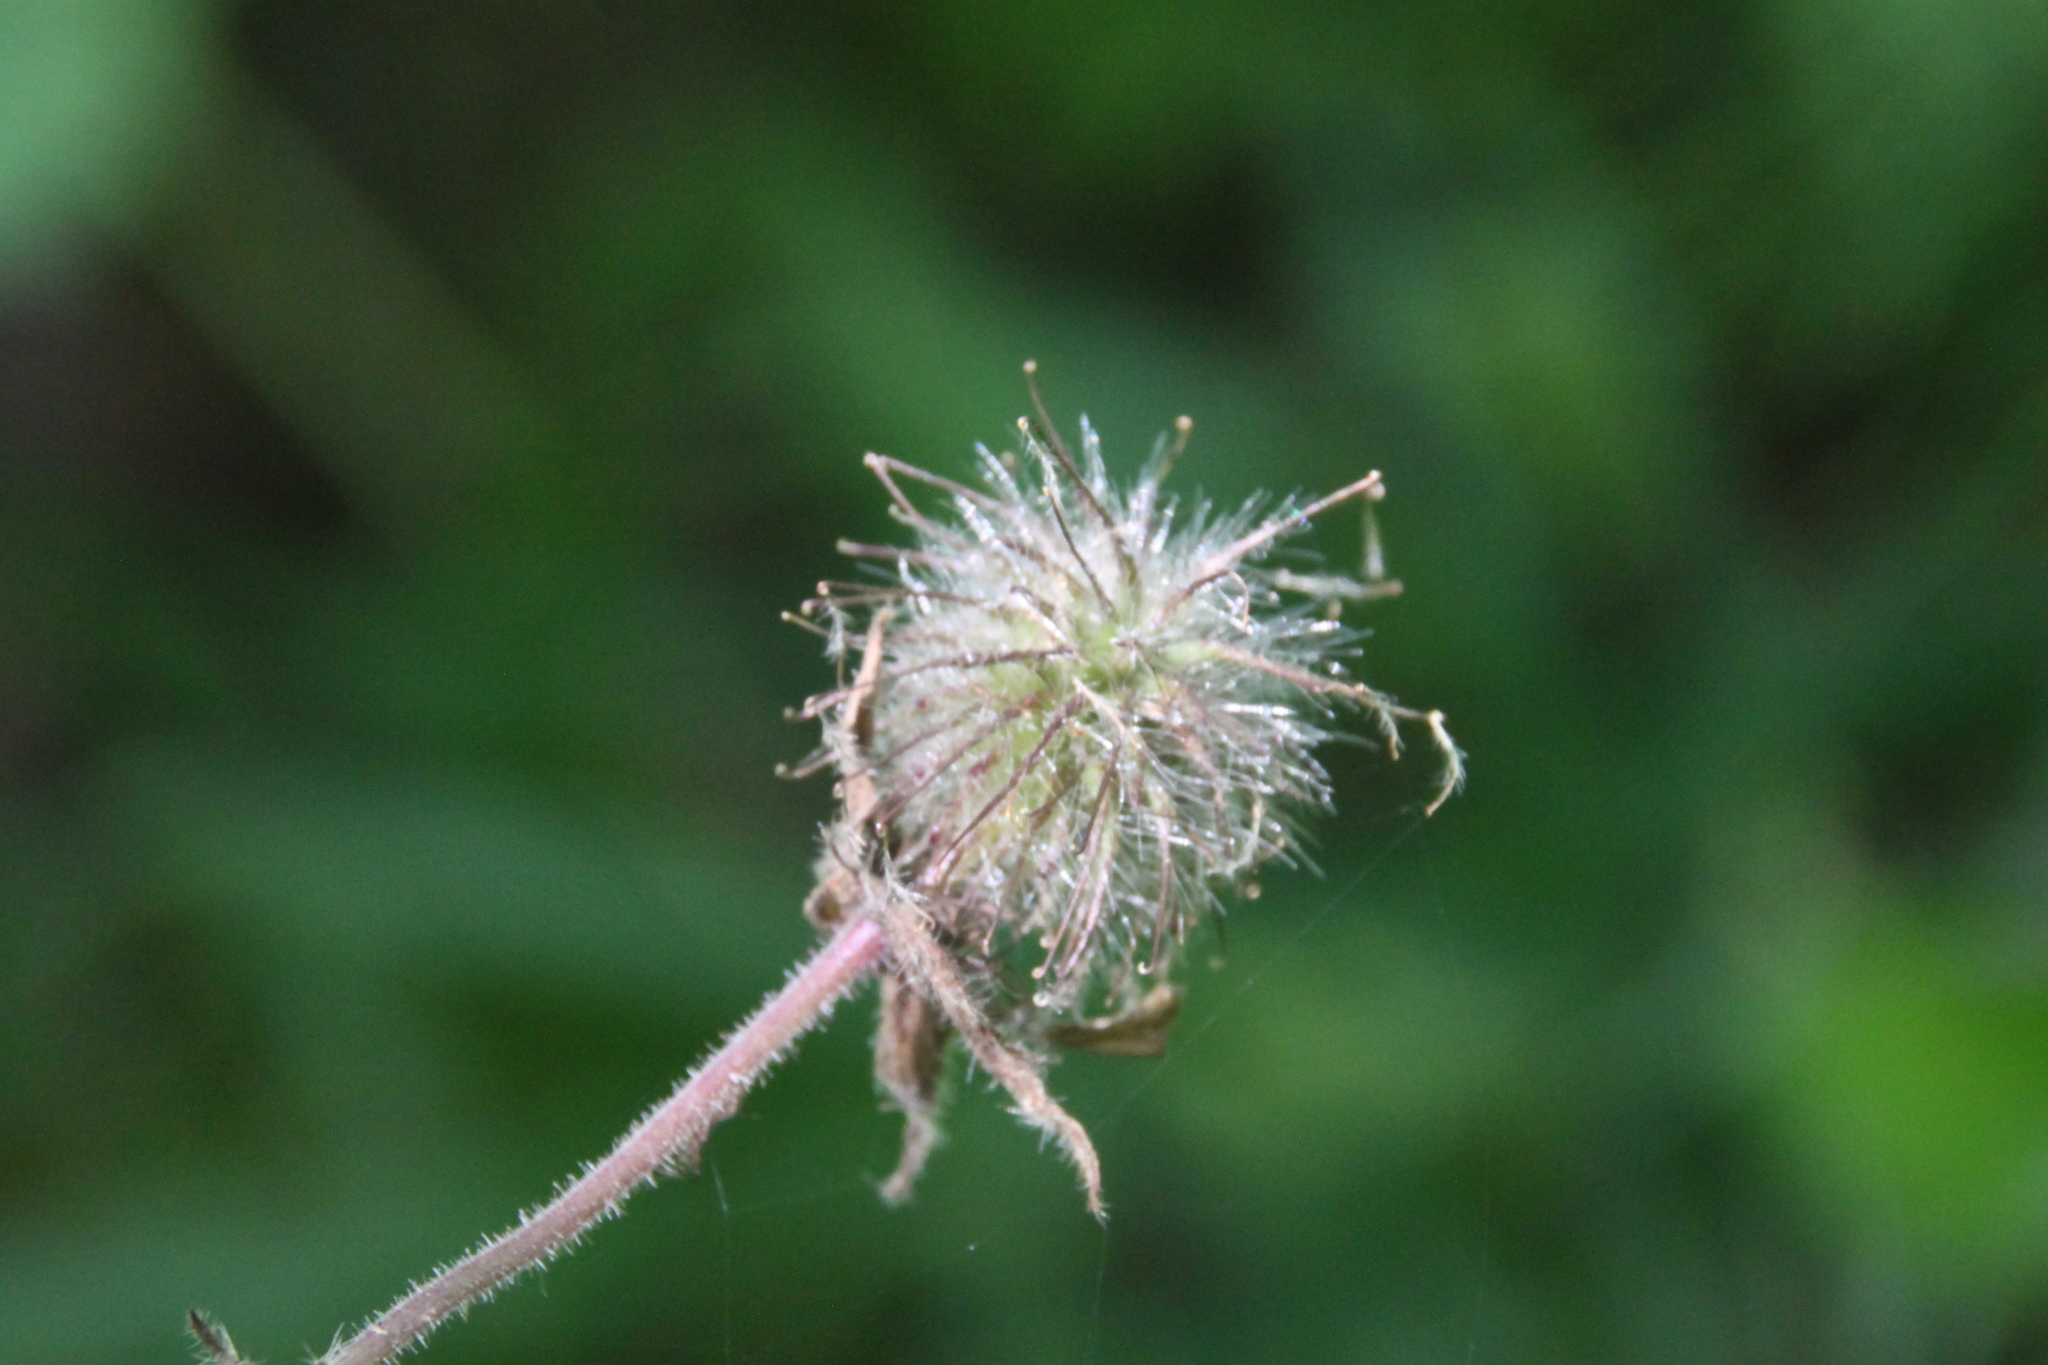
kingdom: Plantae
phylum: Tracheophyta
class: Magnoliopsida
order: Rosales
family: Rosaceae
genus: Geum
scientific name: Geum rivale
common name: Water avens
